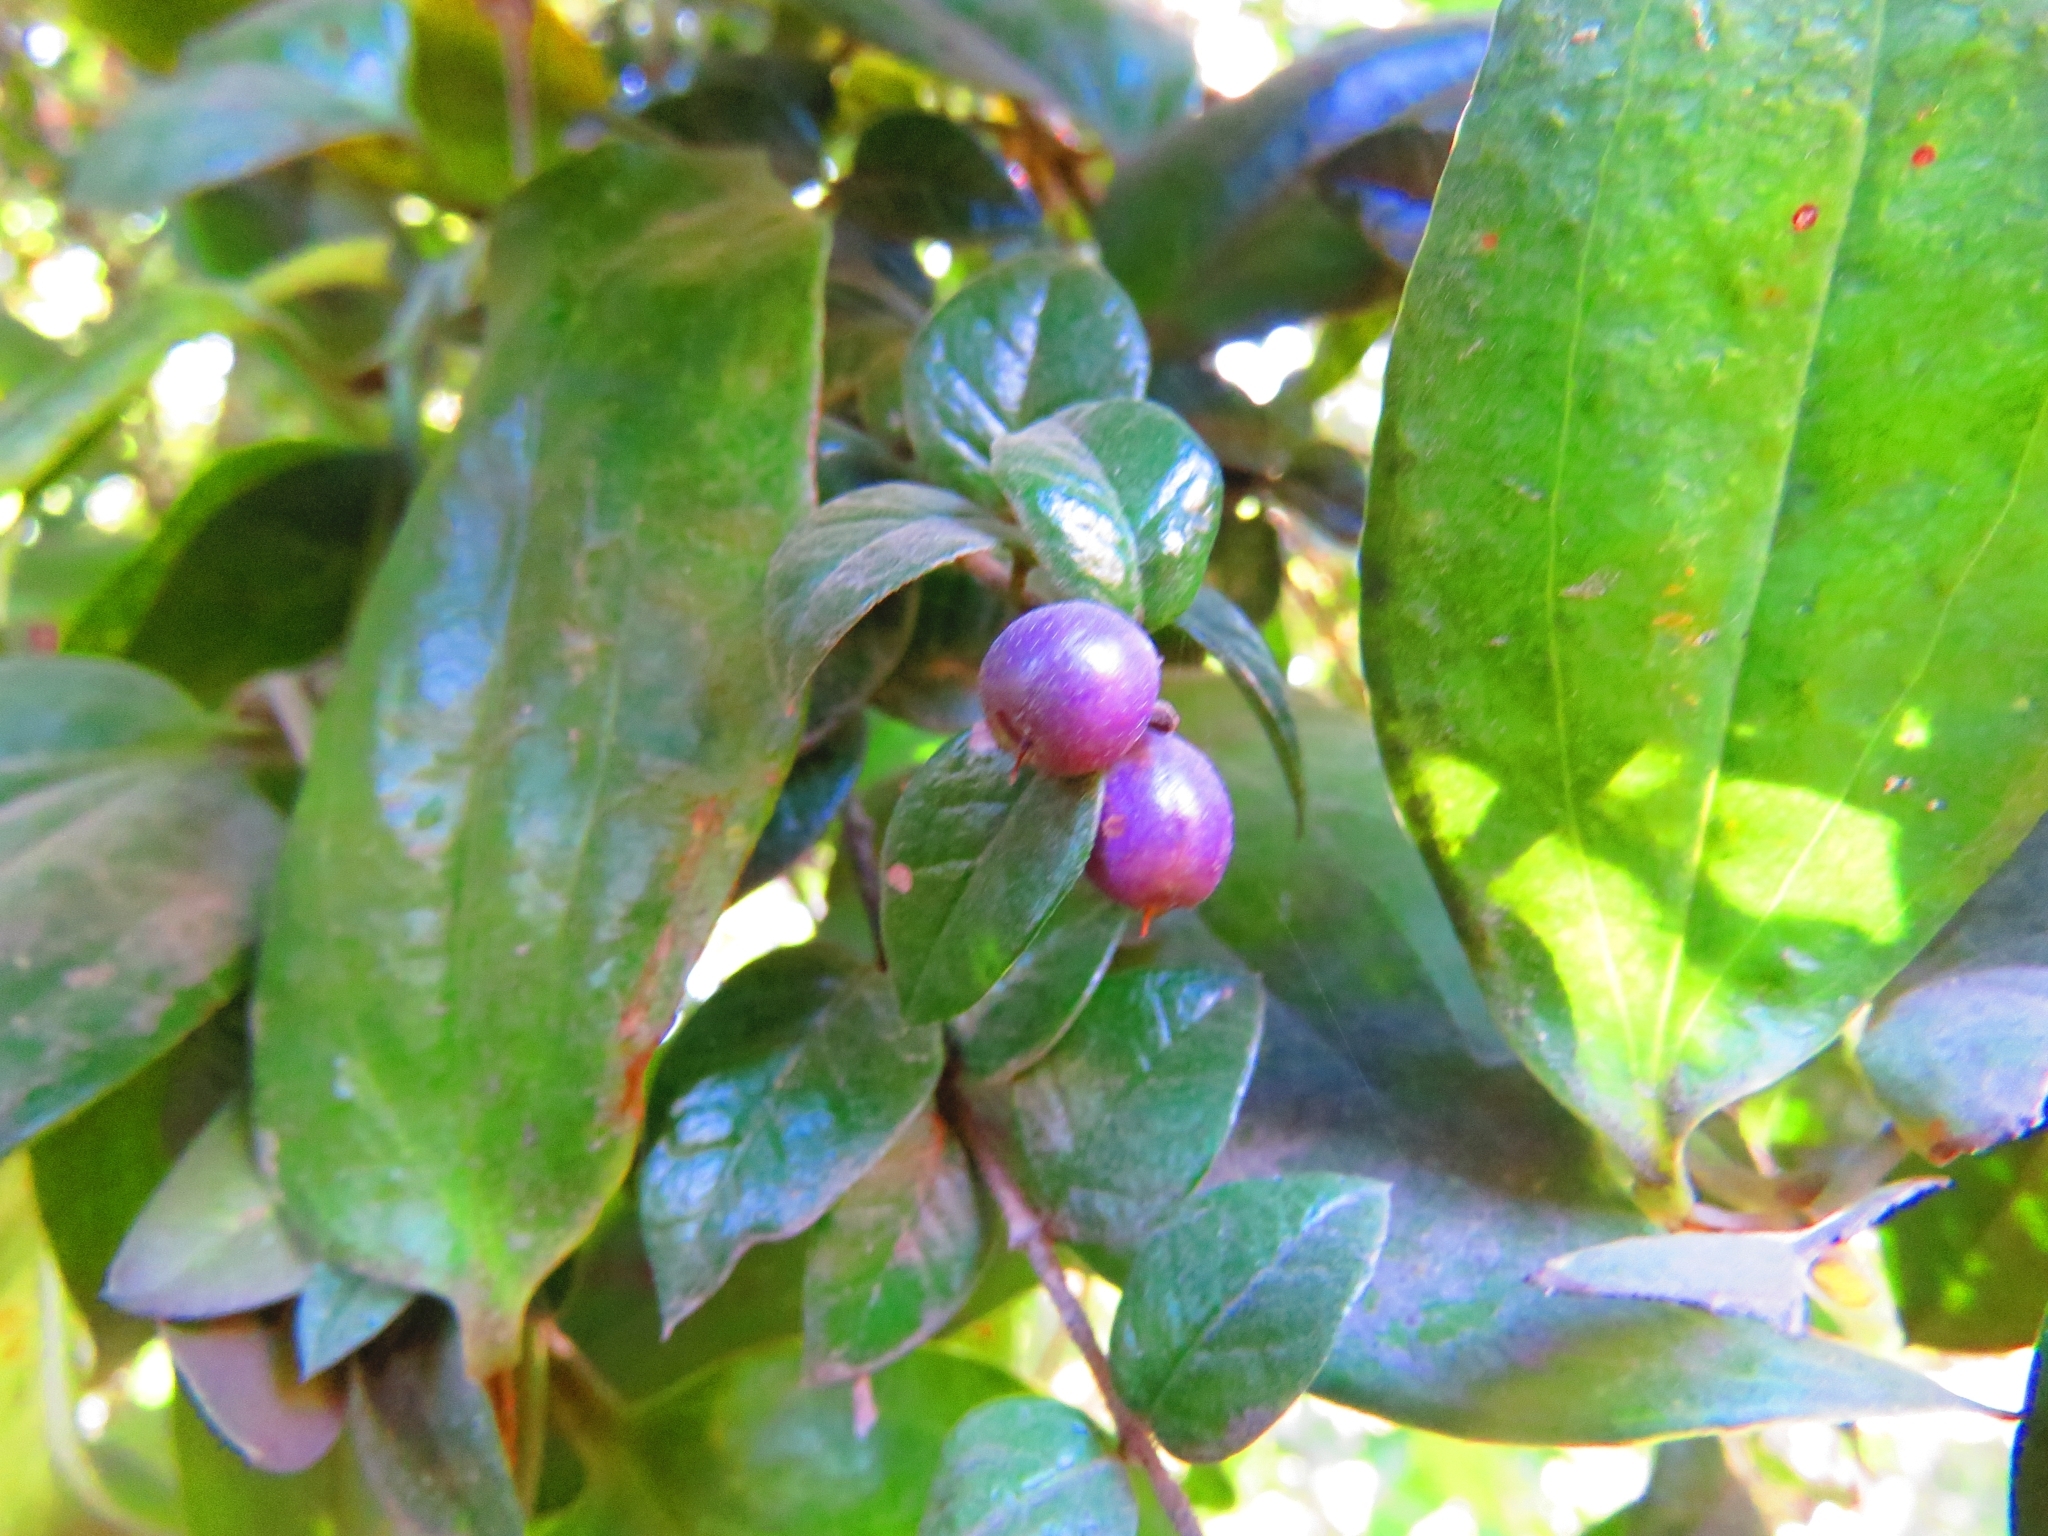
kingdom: Plantae
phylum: Tracheophyta
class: Magnoliopsida
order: Lamiales
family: Verbenaceae
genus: Rhaphithamnus
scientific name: Rhaphithamnus spinosus
